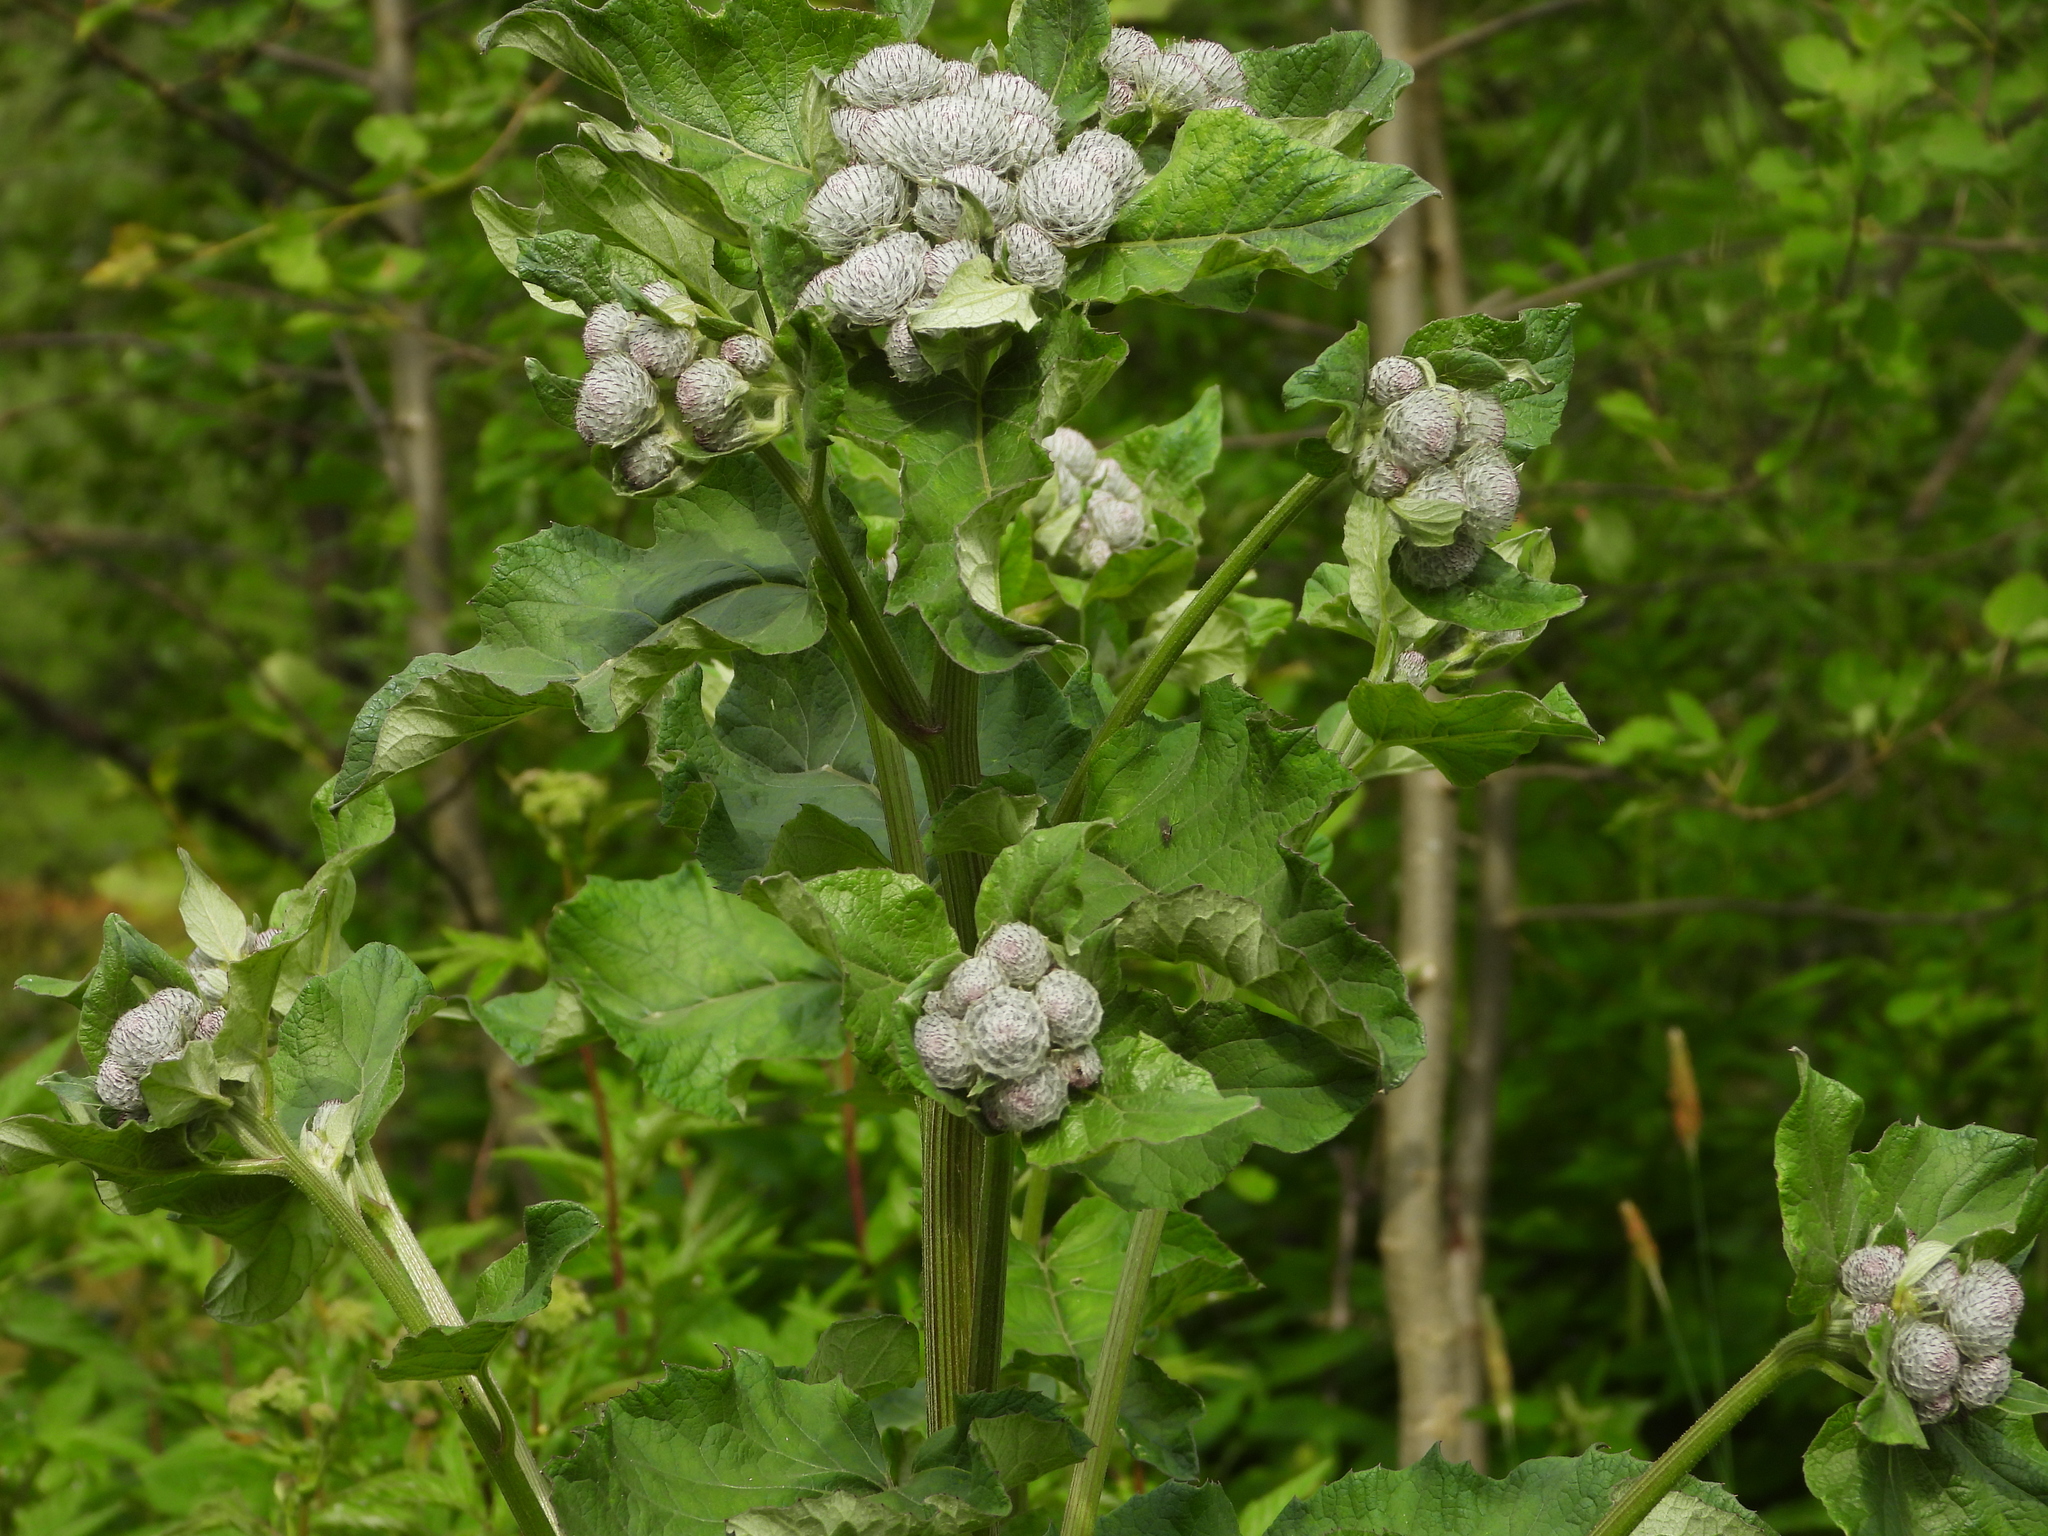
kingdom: Plantae
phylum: Tracheophyta
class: Magnoliopsida
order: Asterales
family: Asteraceae
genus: Arctium
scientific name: Arctium tomentosum
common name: Woolly burdock
